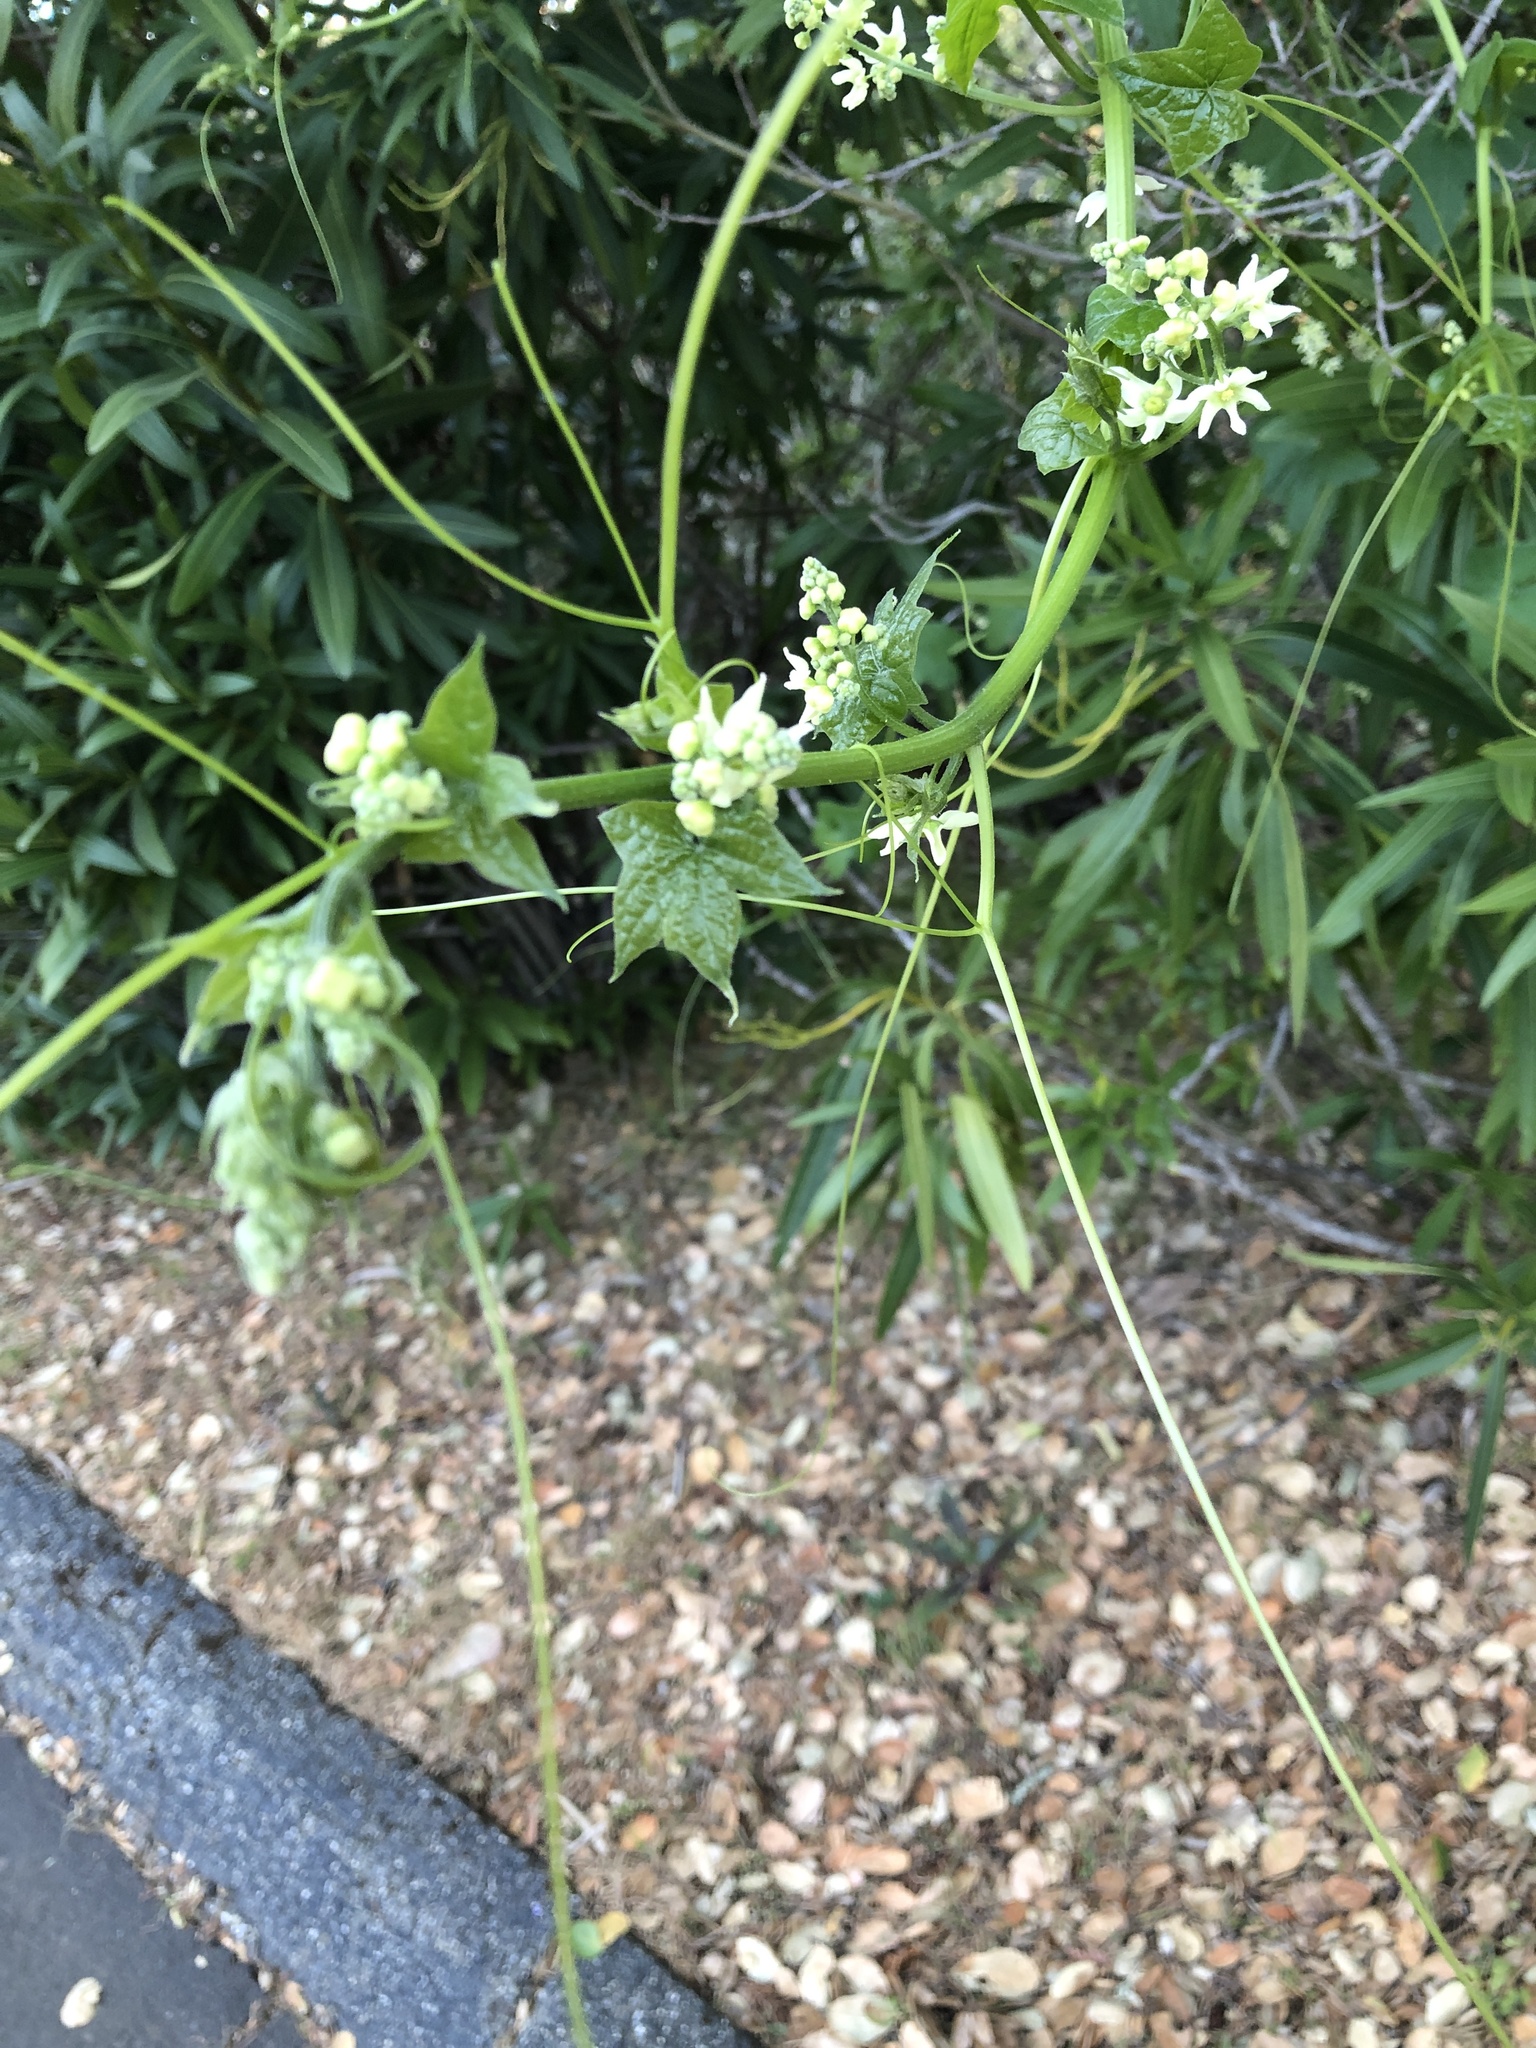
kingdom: Plantae
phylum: Tracheophyta
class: Magnoliopsida
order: Cucurbitales
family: Cucurbitaceae
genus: Marah
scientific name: Marah fabacea
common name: California manroot
